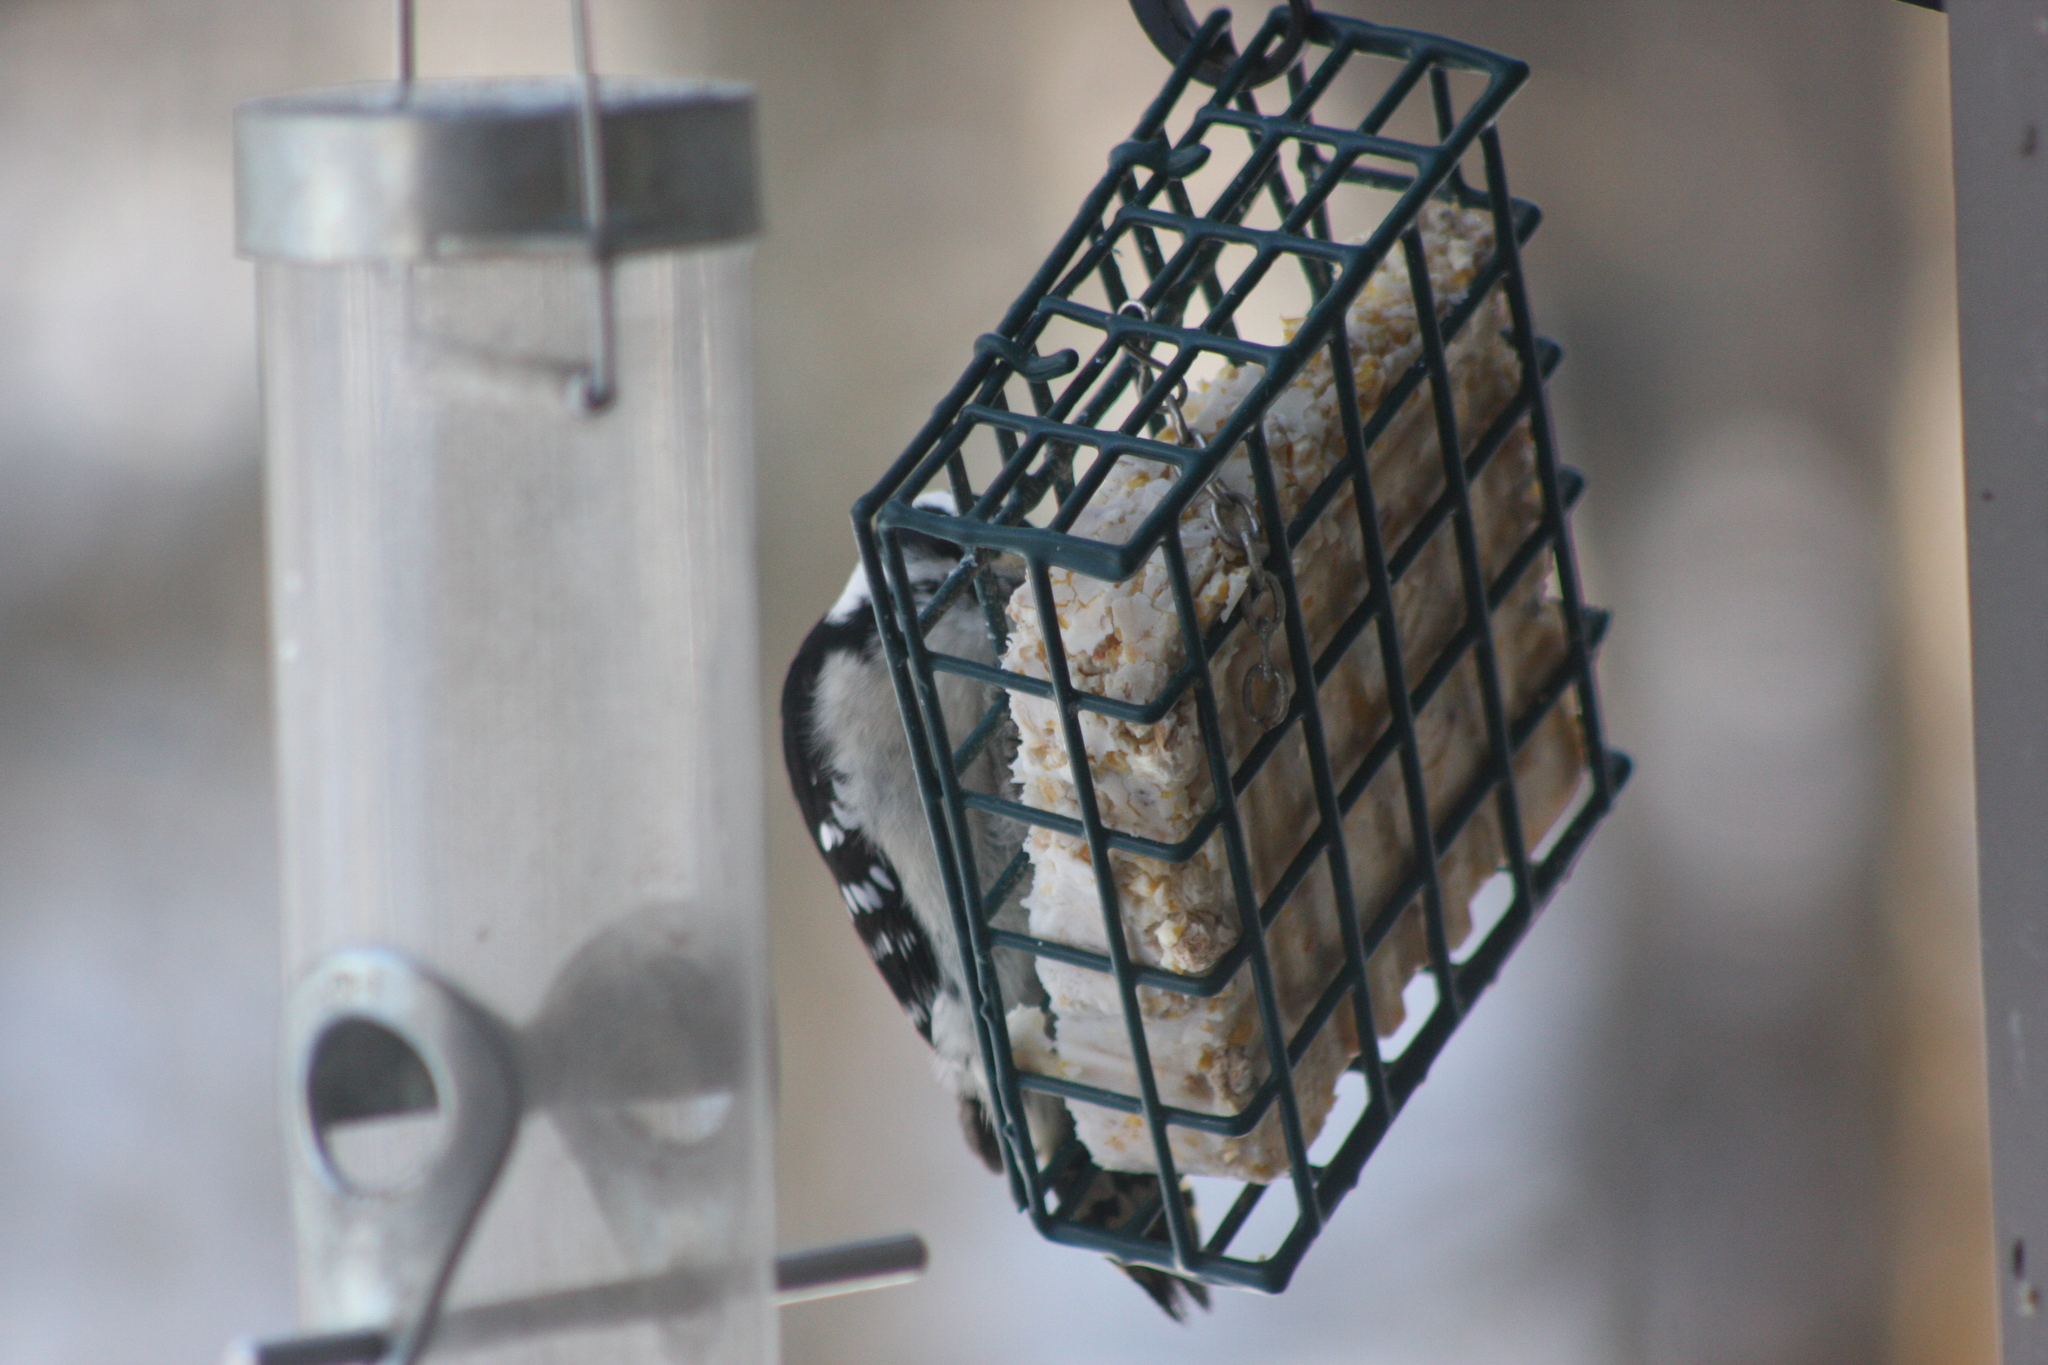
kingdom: Animalia
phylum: Chordata
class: Aves
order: Piciformes
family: Picidae
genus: Dryobates
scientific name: Dryobates pubescens
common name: Downy woodpecker
